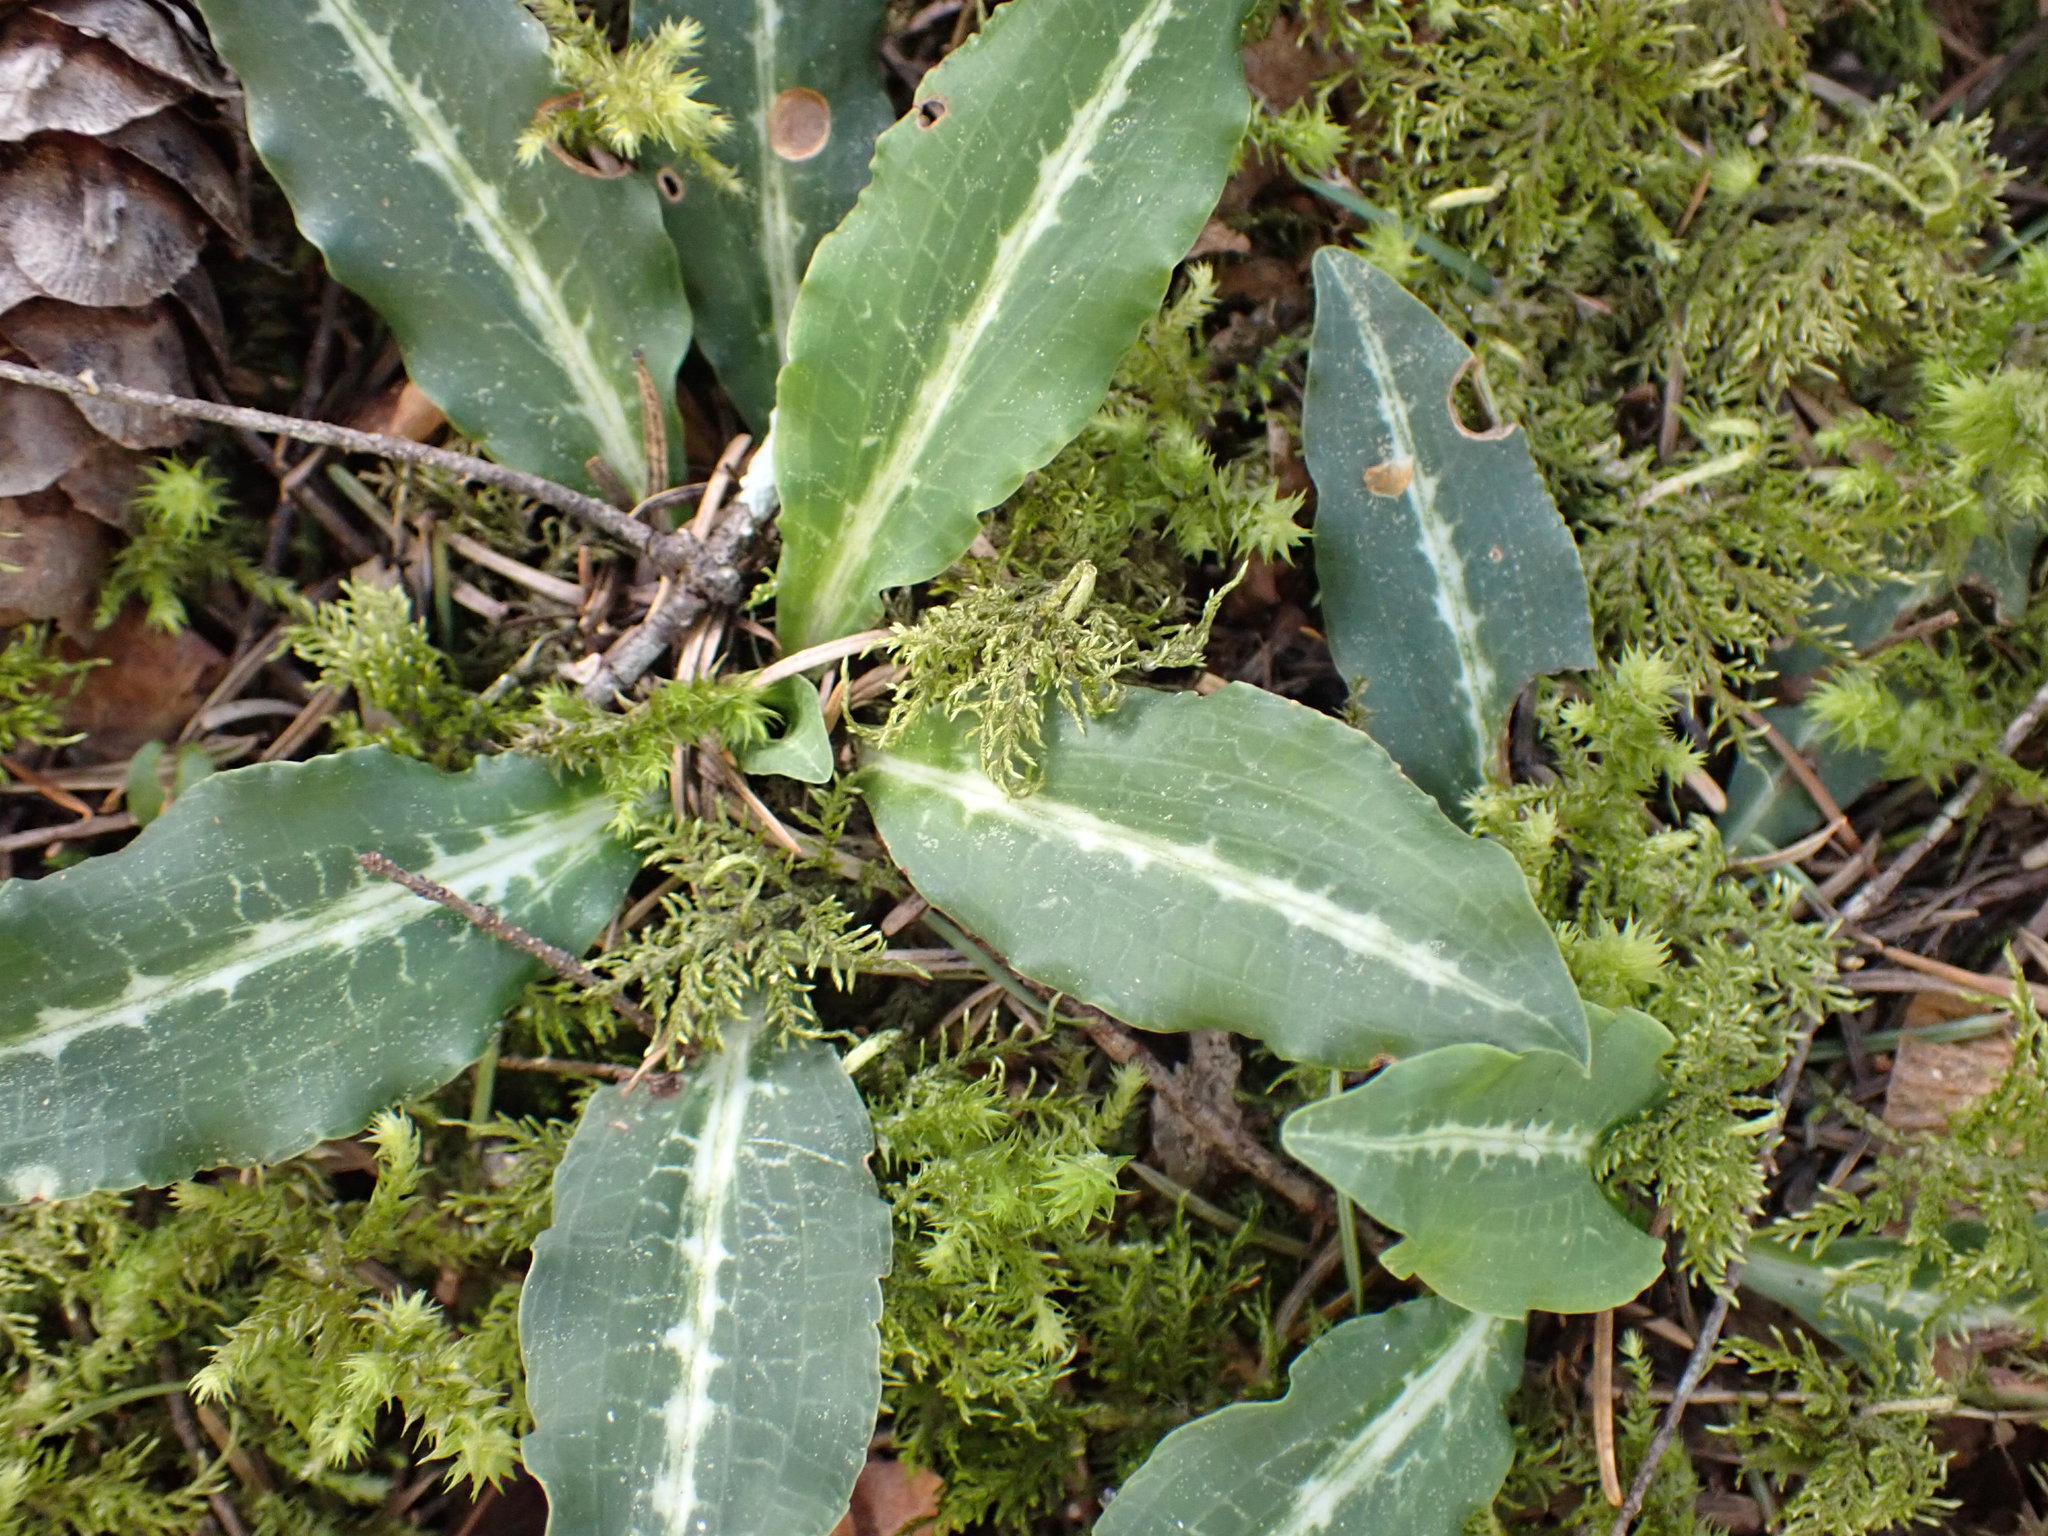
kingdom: Plantae
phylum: Tracheophyta
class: Liliopsida
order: Asparagales
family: Orchidaceae
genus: Goodyera
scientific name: Goodyera oblongifolia
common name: Giant rattlesnake-plantain
